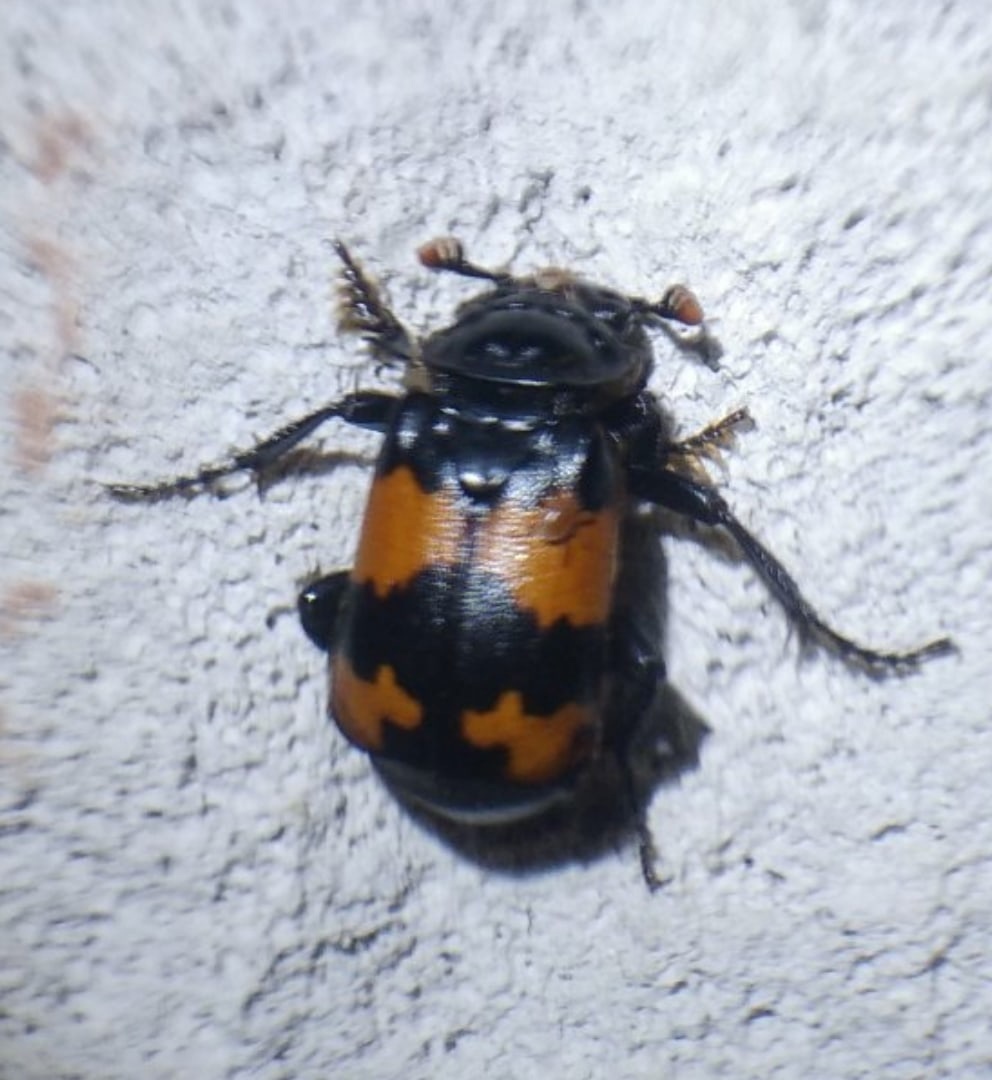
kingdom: Animalia
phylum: Arthropoda
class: Insecta
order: Coleoptera
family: Staphylinidae
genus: Nicrophorus
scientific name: Nicrophorus investigator
